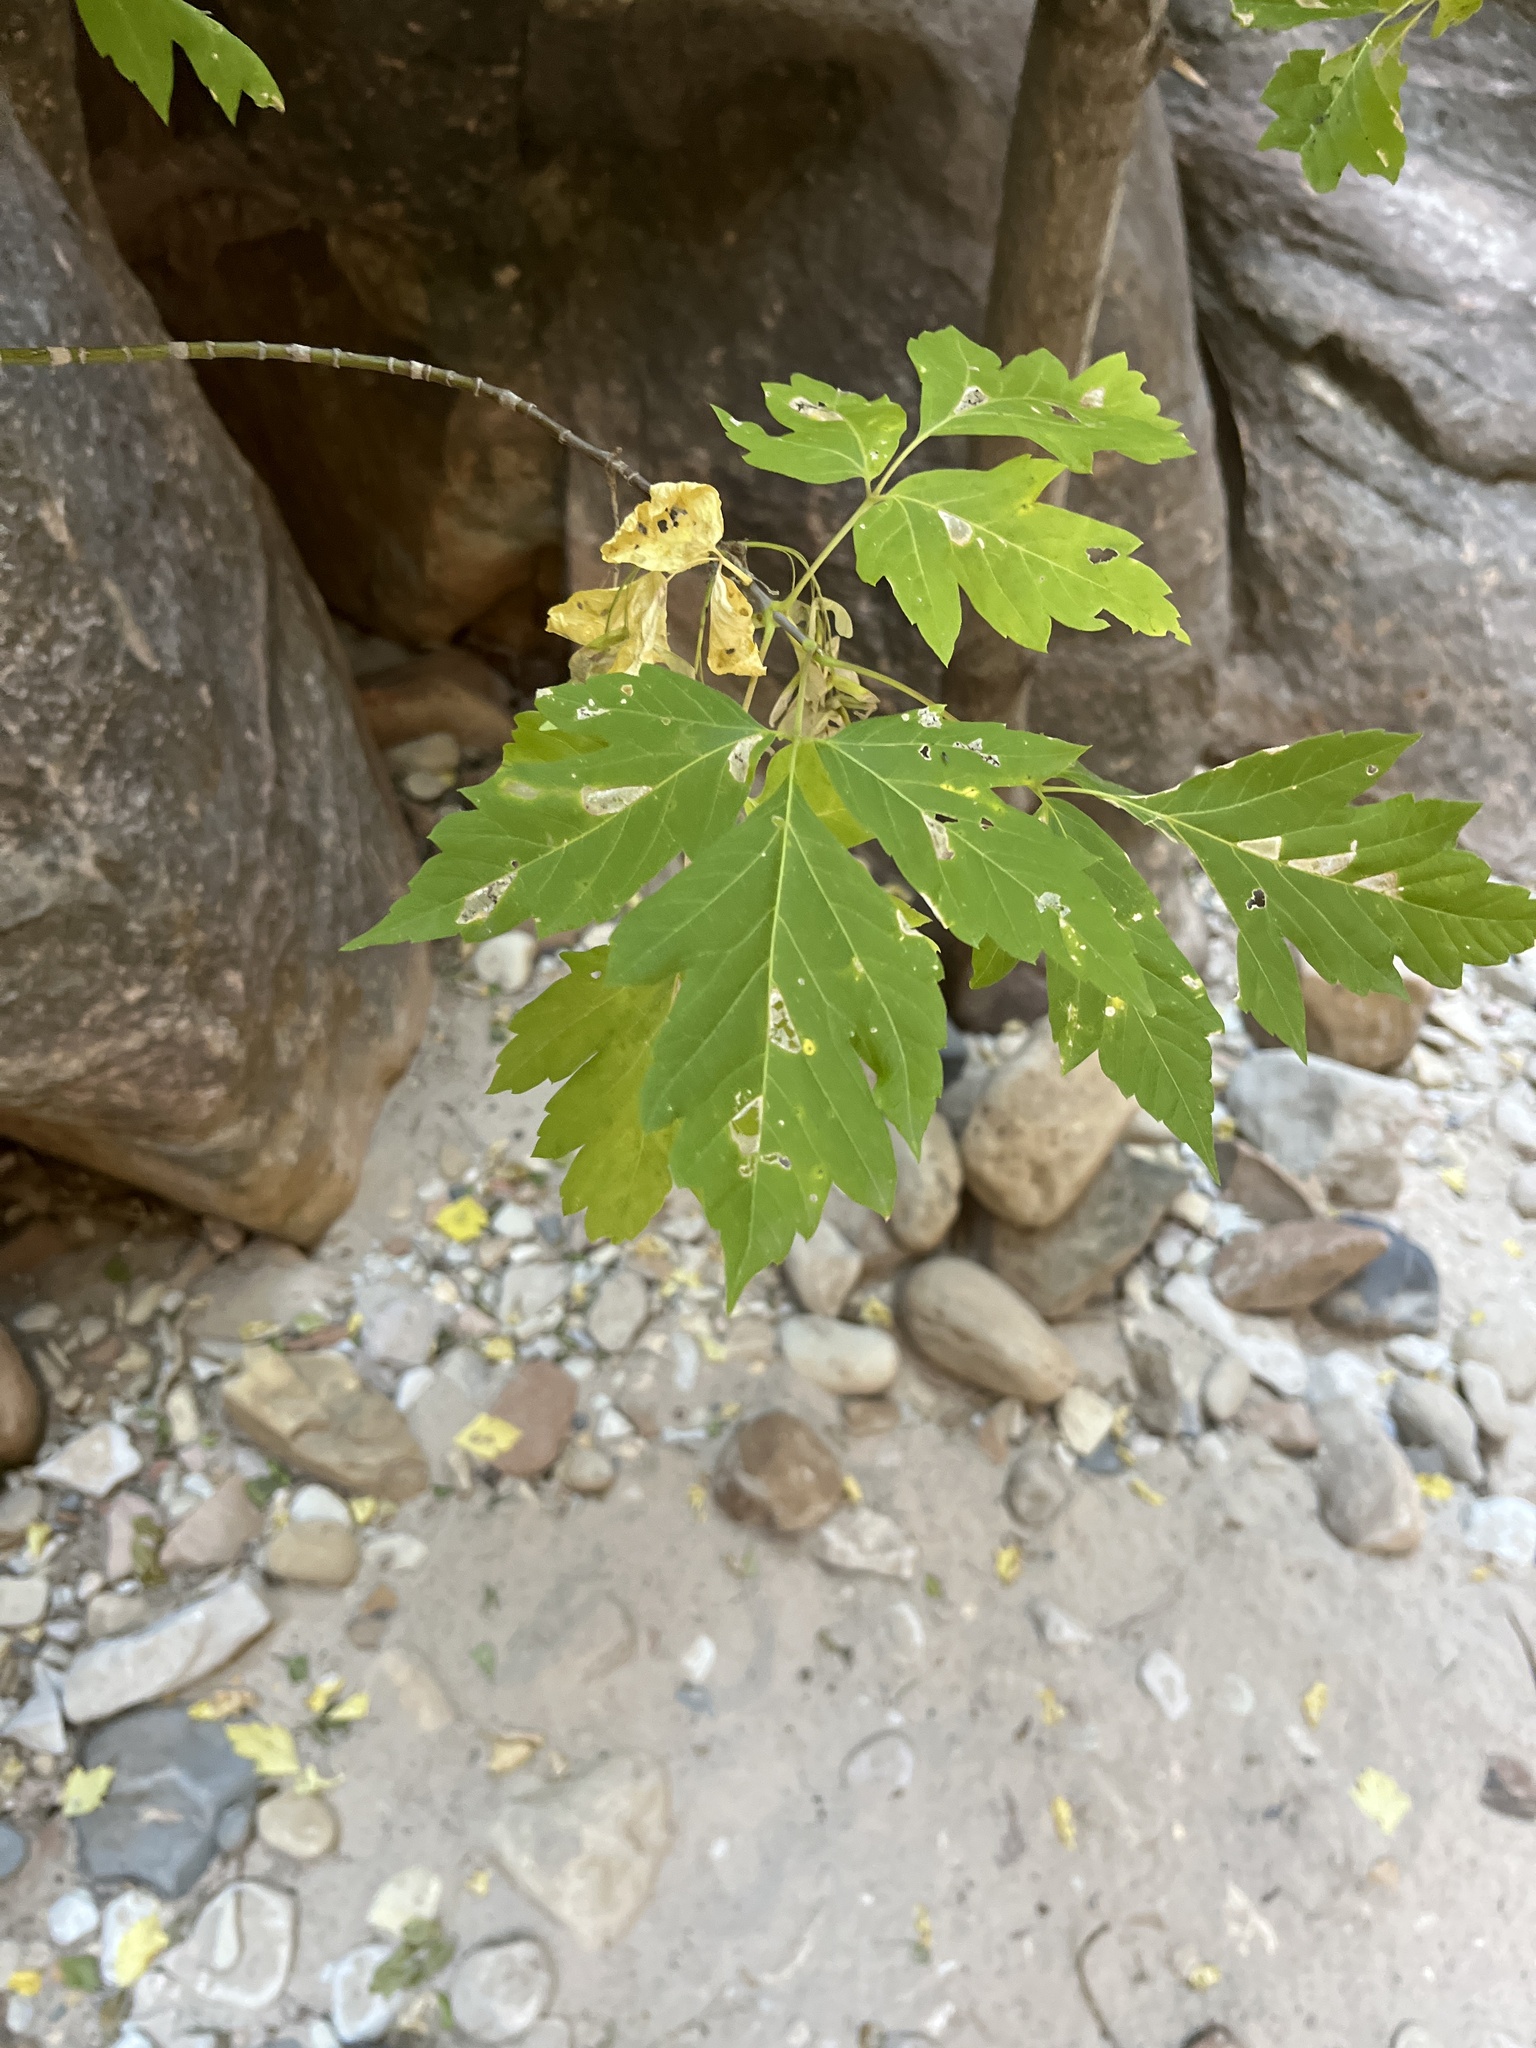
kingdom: Plantae
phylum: Tracheophyta
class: Magnoliopsida
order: Sapindales
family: Sapindaceae
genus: Acer
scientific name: Acer negundo
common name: Ashleaf maple
